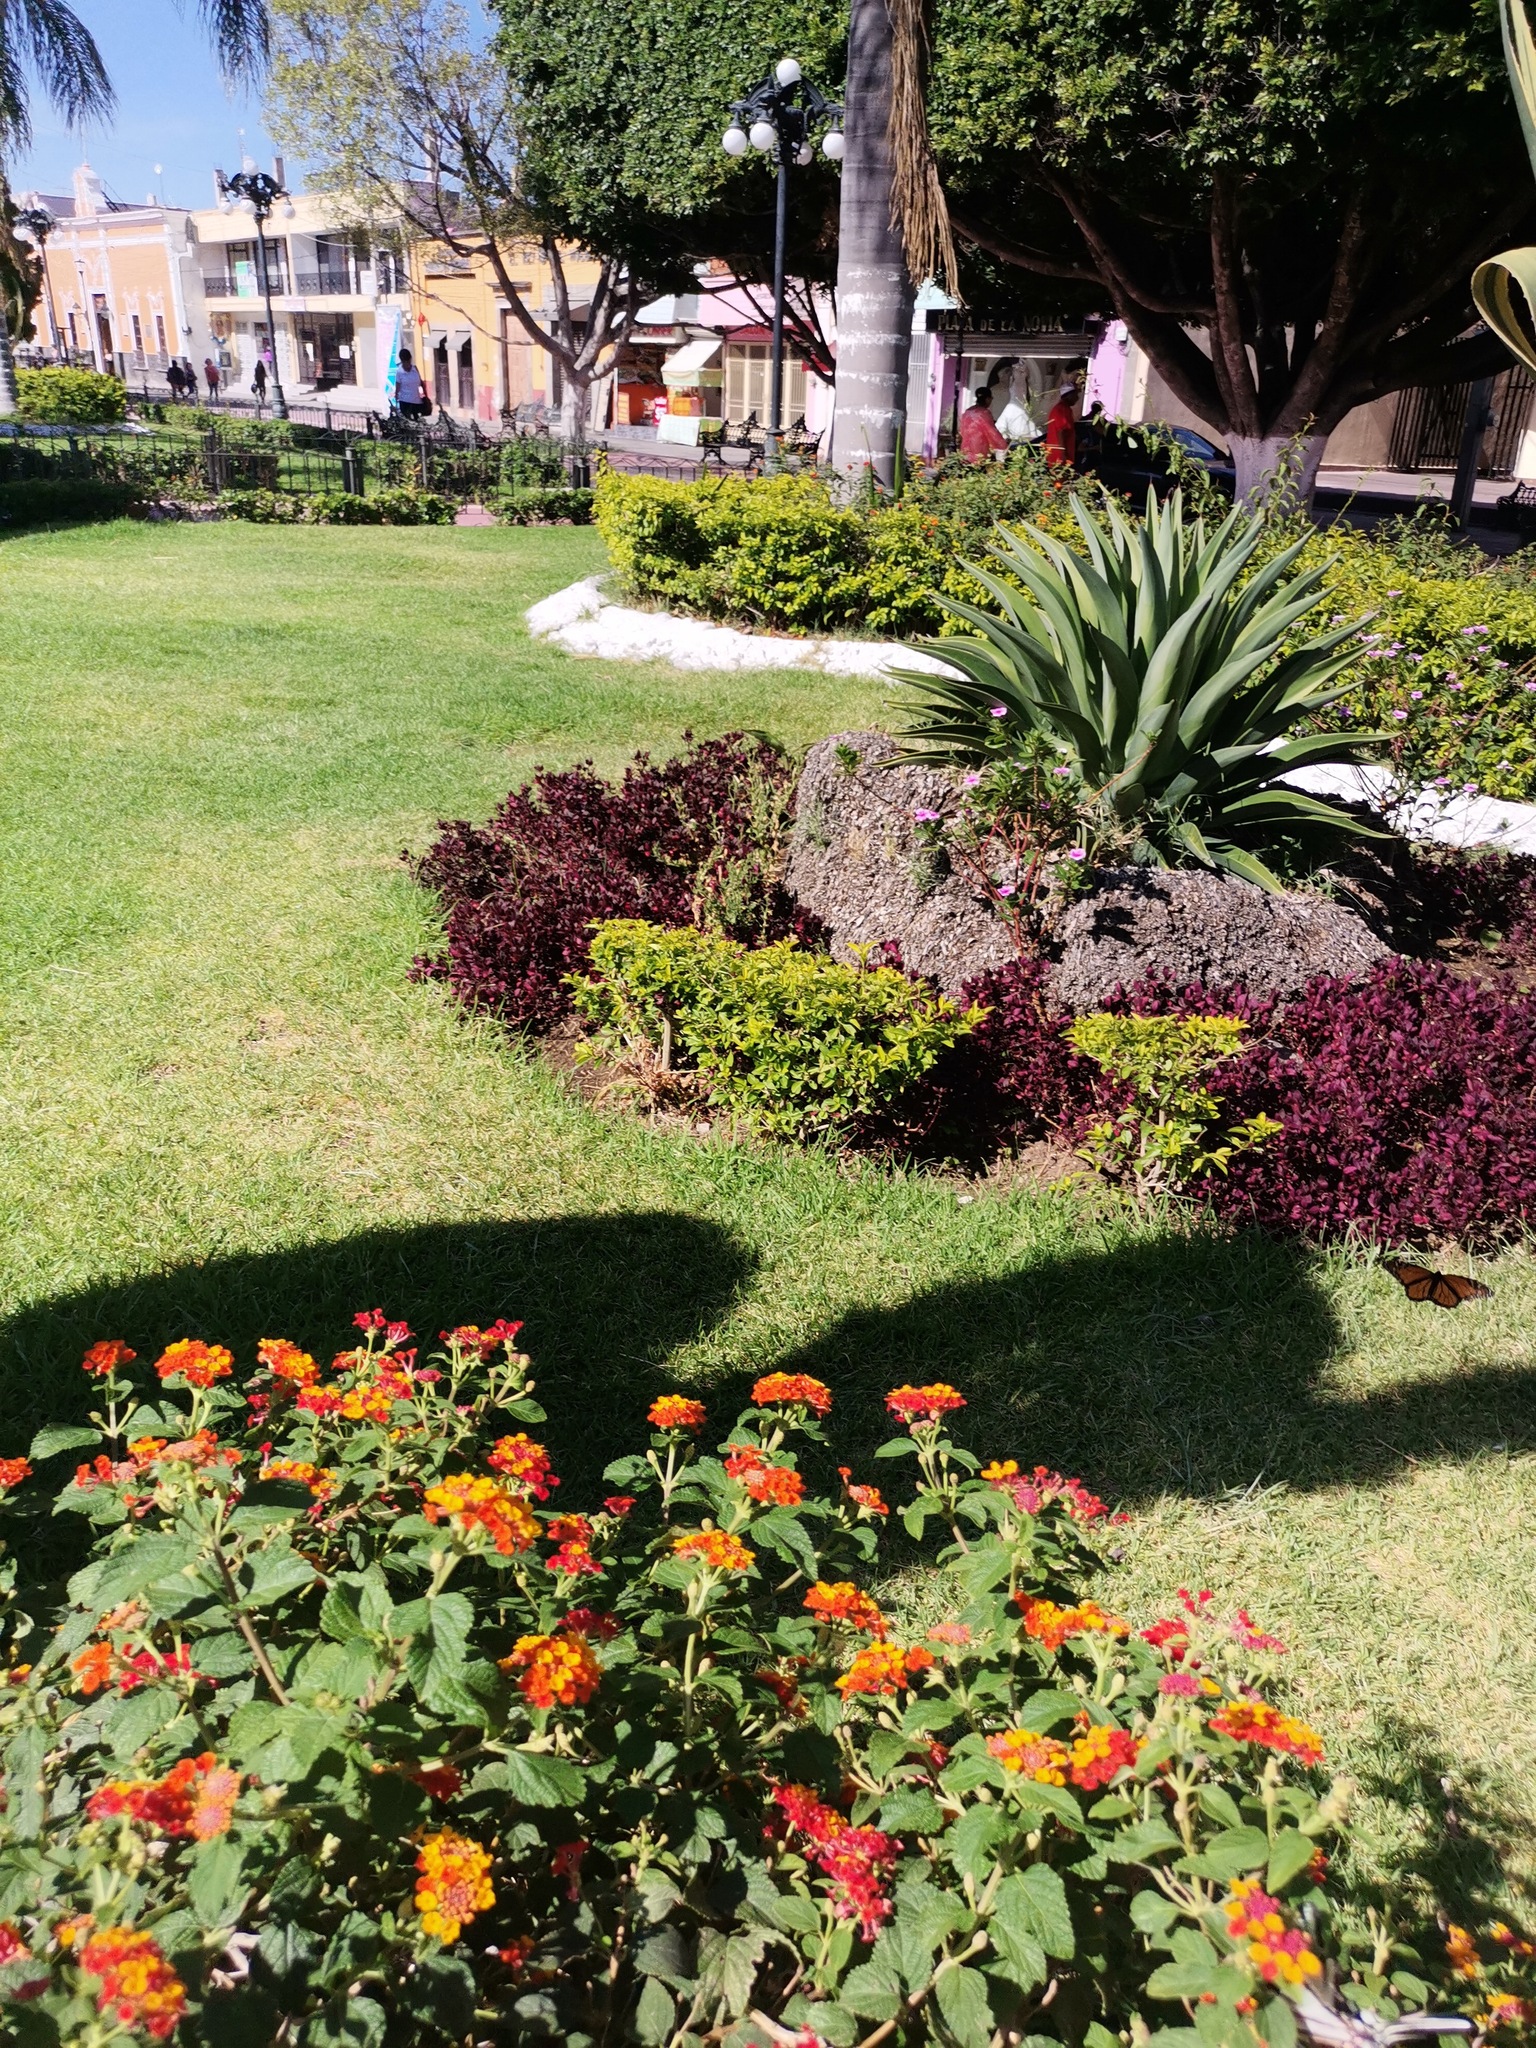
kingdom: Animalia
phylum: Arthropoda
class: Insecta
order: Lepidoptera
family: Nymphalidae
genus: Danaus
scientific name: Danaus plexippus
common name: Monarch
